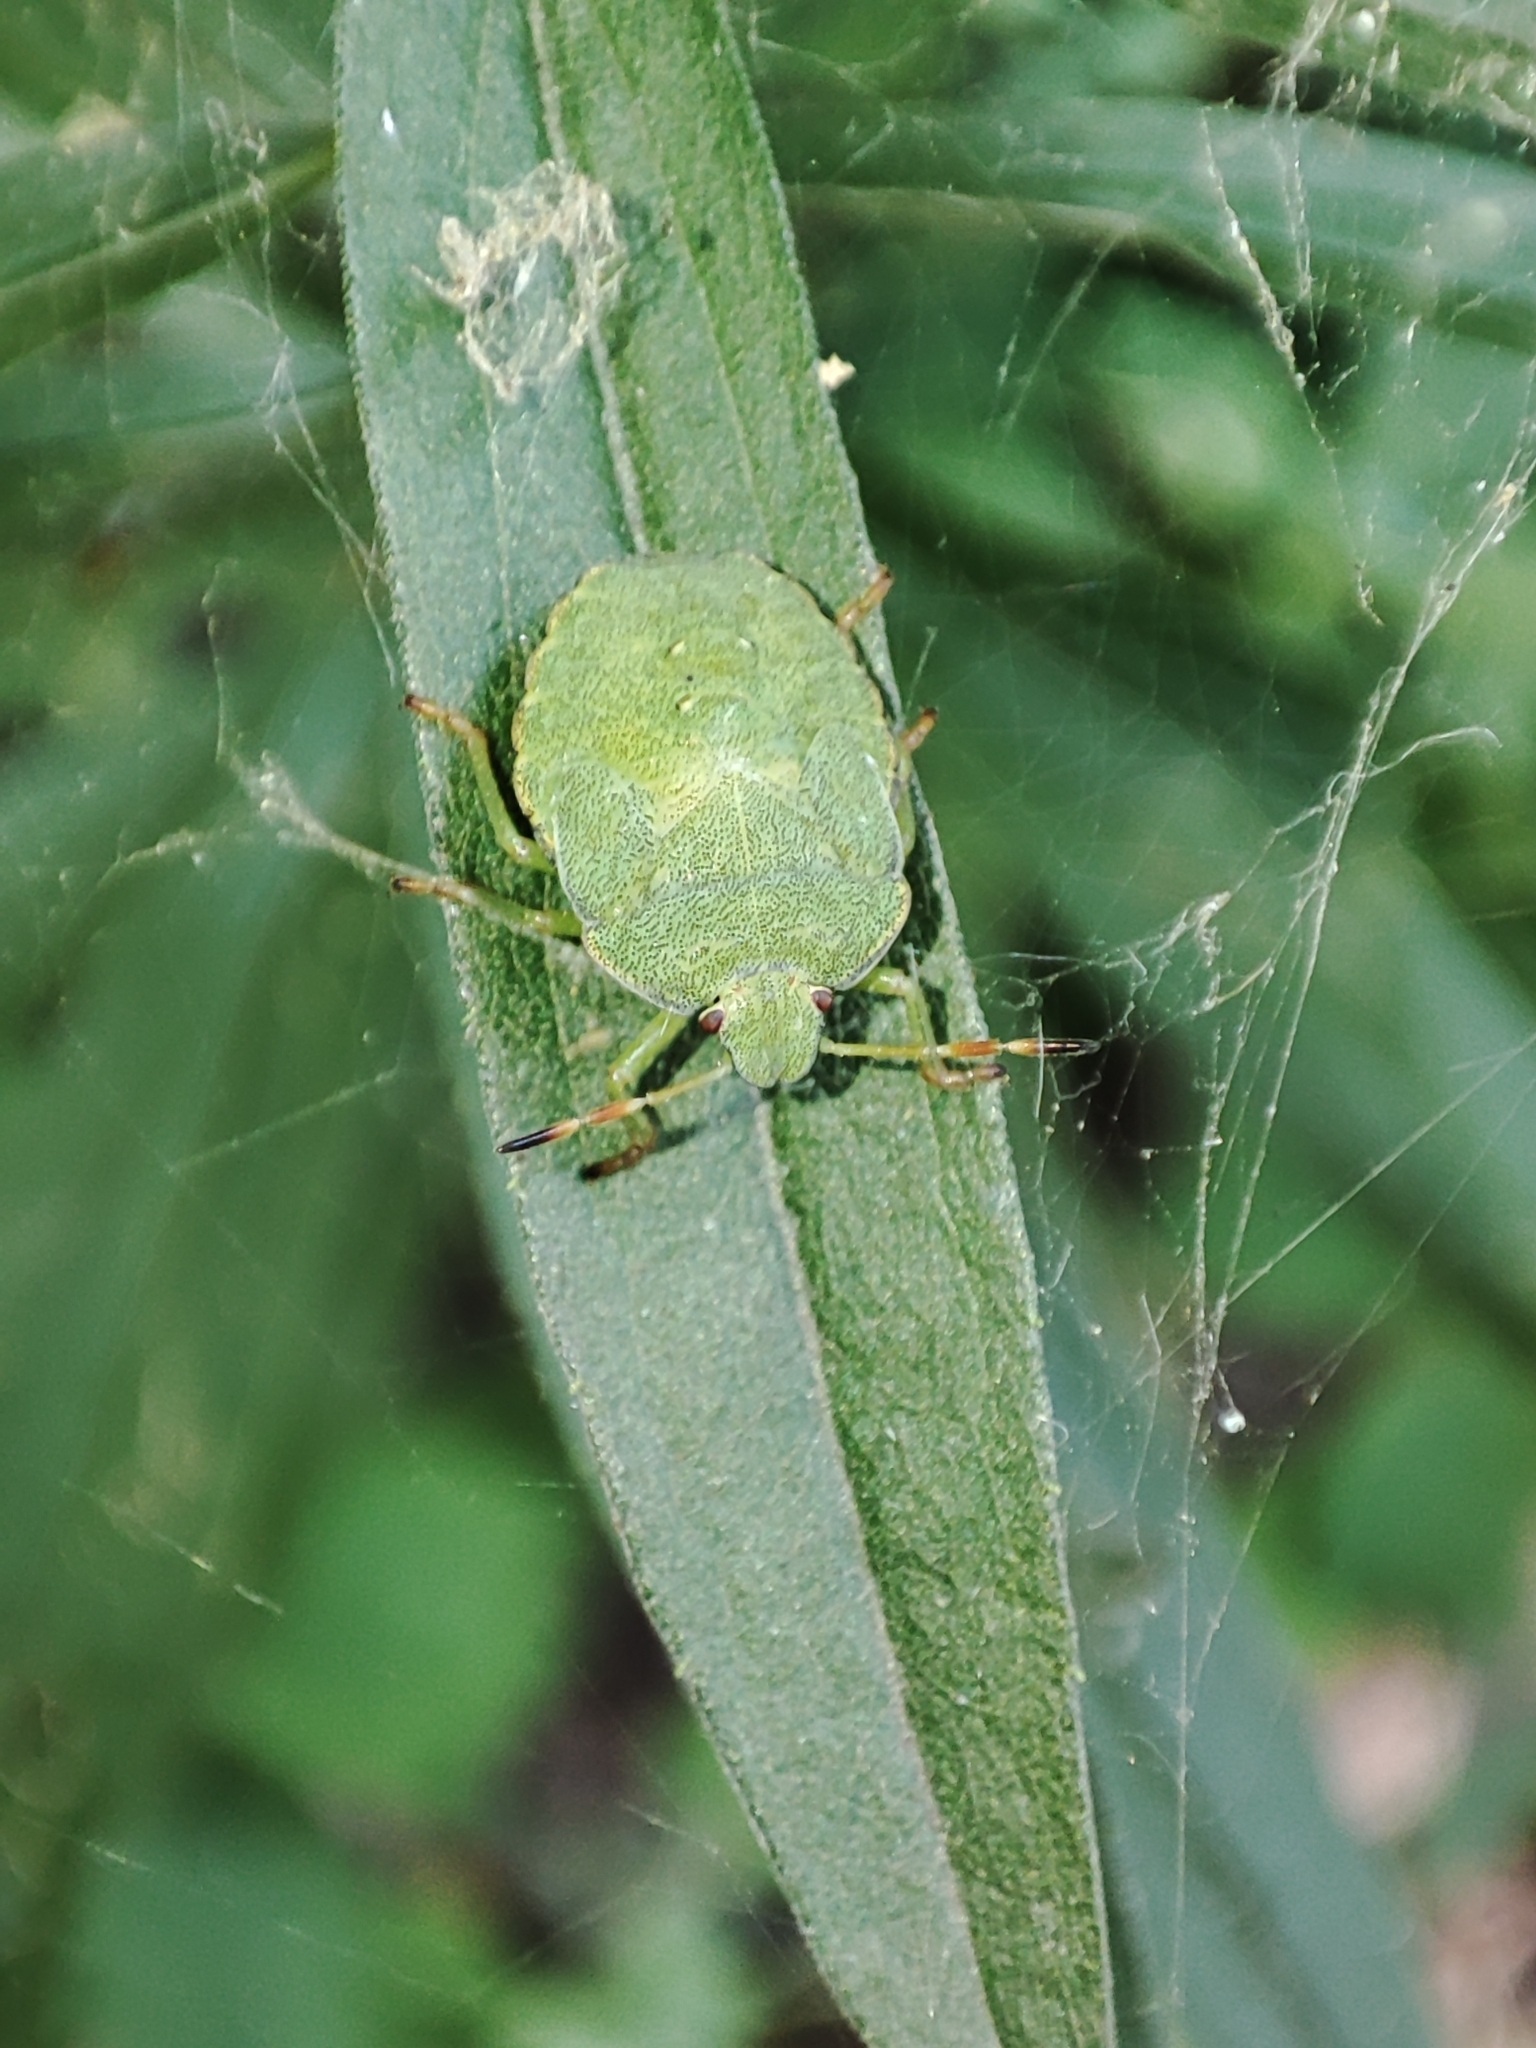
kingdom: Animalia
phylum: Arthropoda
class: Insecta
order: Hemiptera
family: Pentatomidae
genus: Palomena
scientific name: Palomena prasina
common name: Green shieldbug
